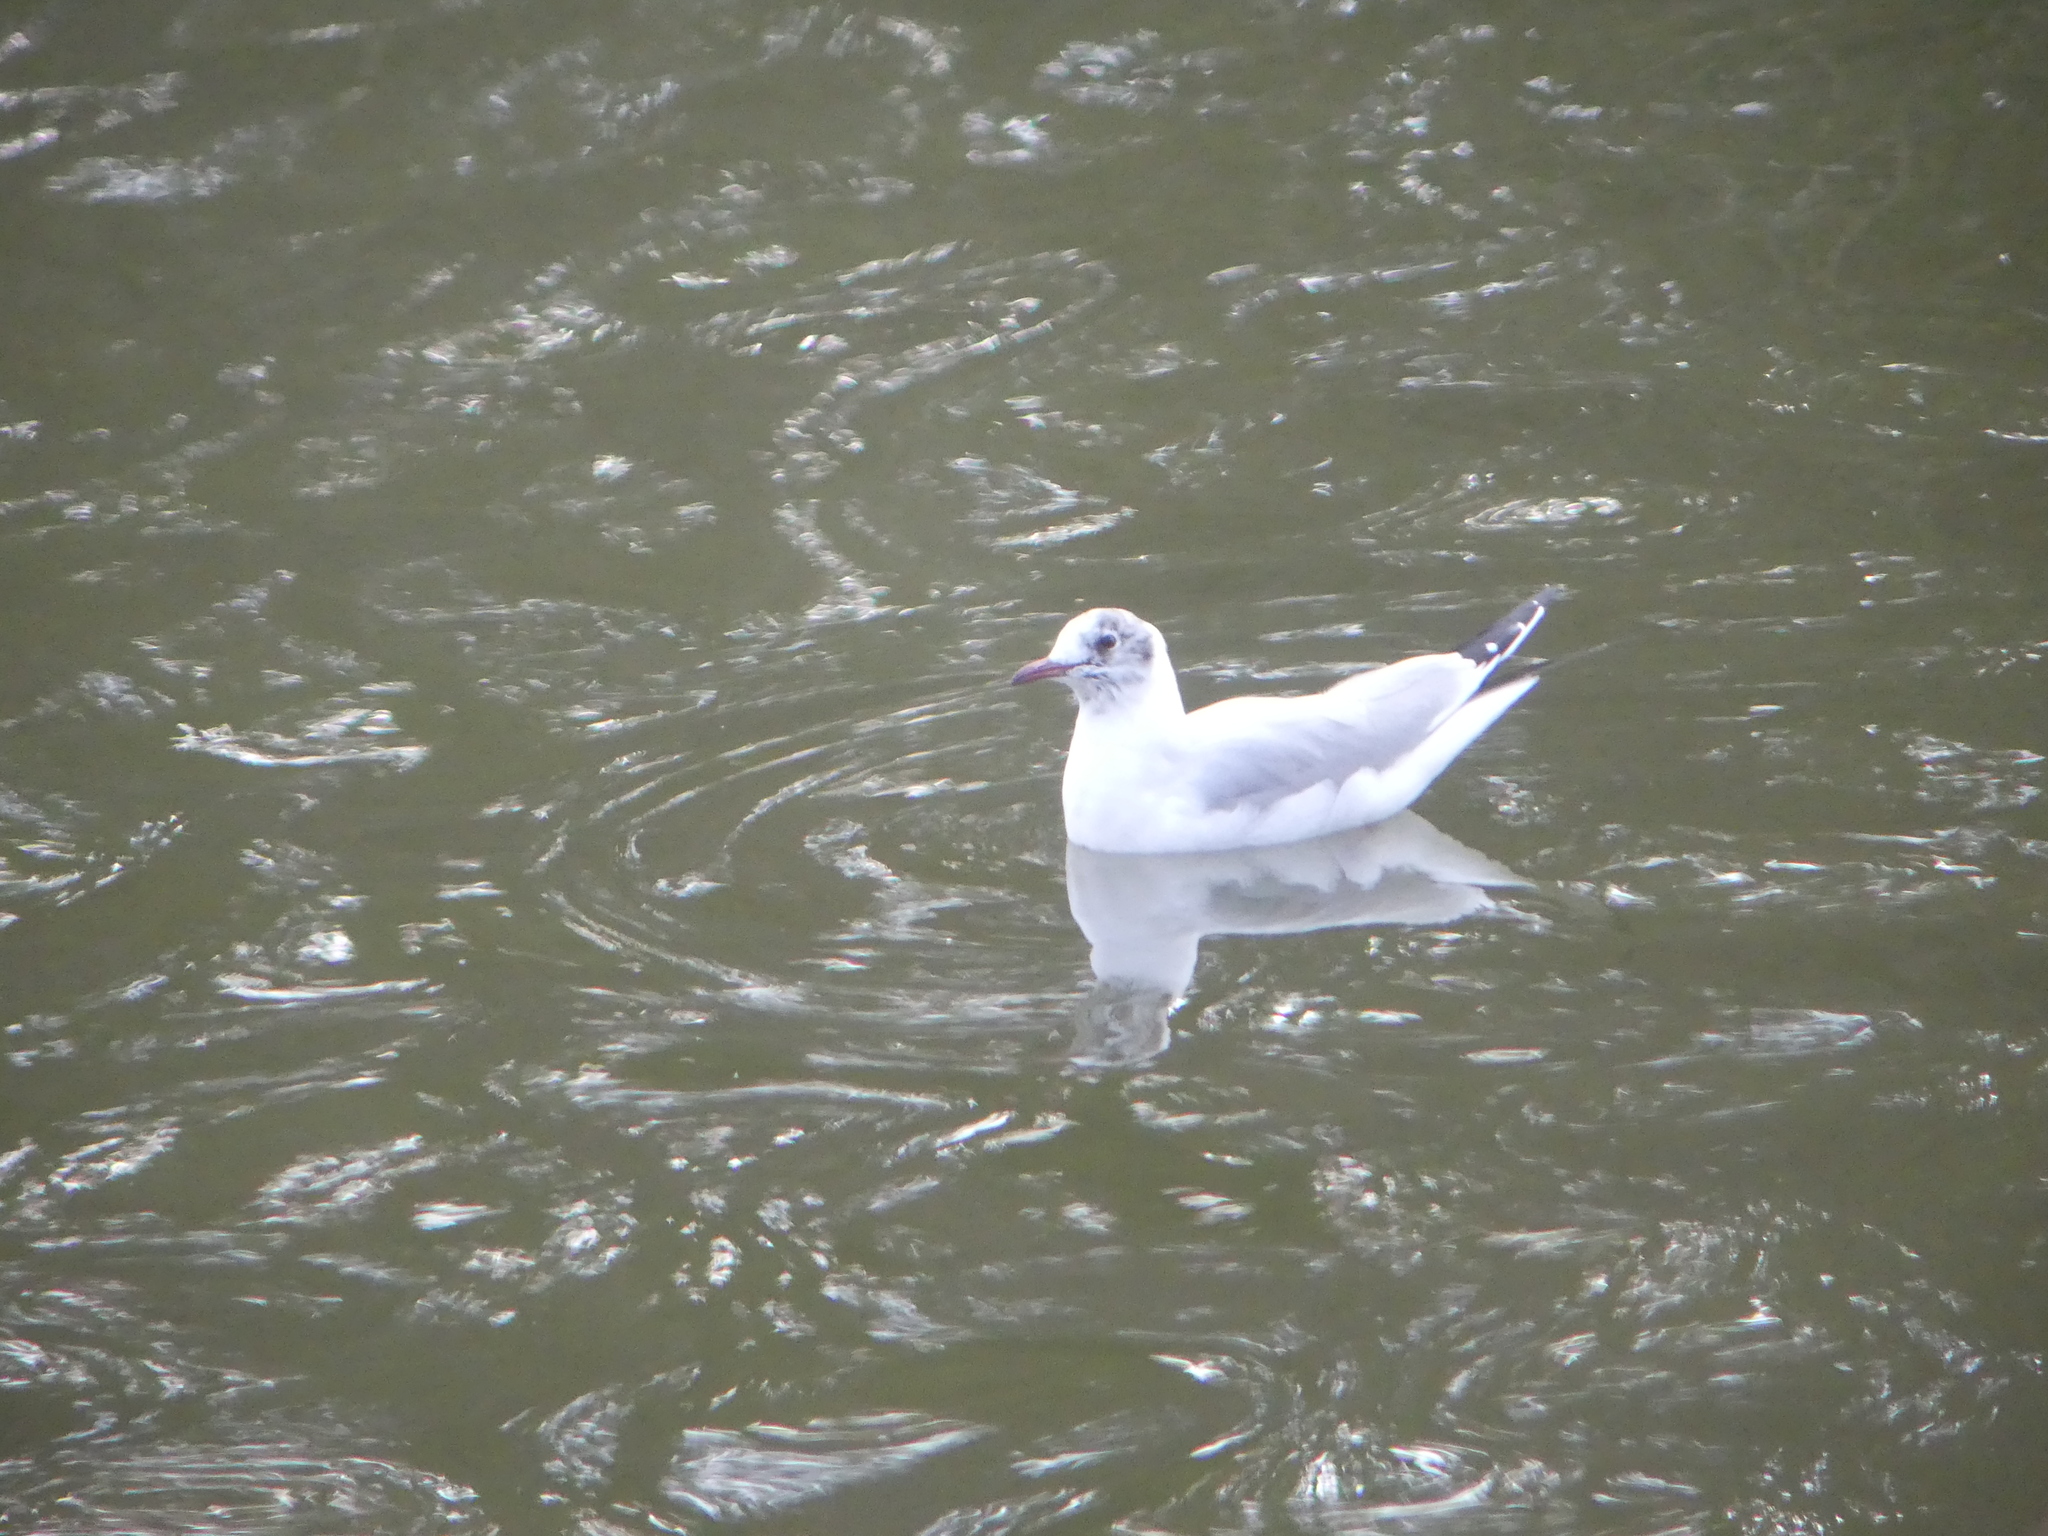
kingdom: Animalia
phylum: Chordata
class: Aves
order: Charadriiformes
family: Laridae
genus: Chroicocephalus
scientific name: Chroicocephalus ridibundus
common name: Black-headed gull
